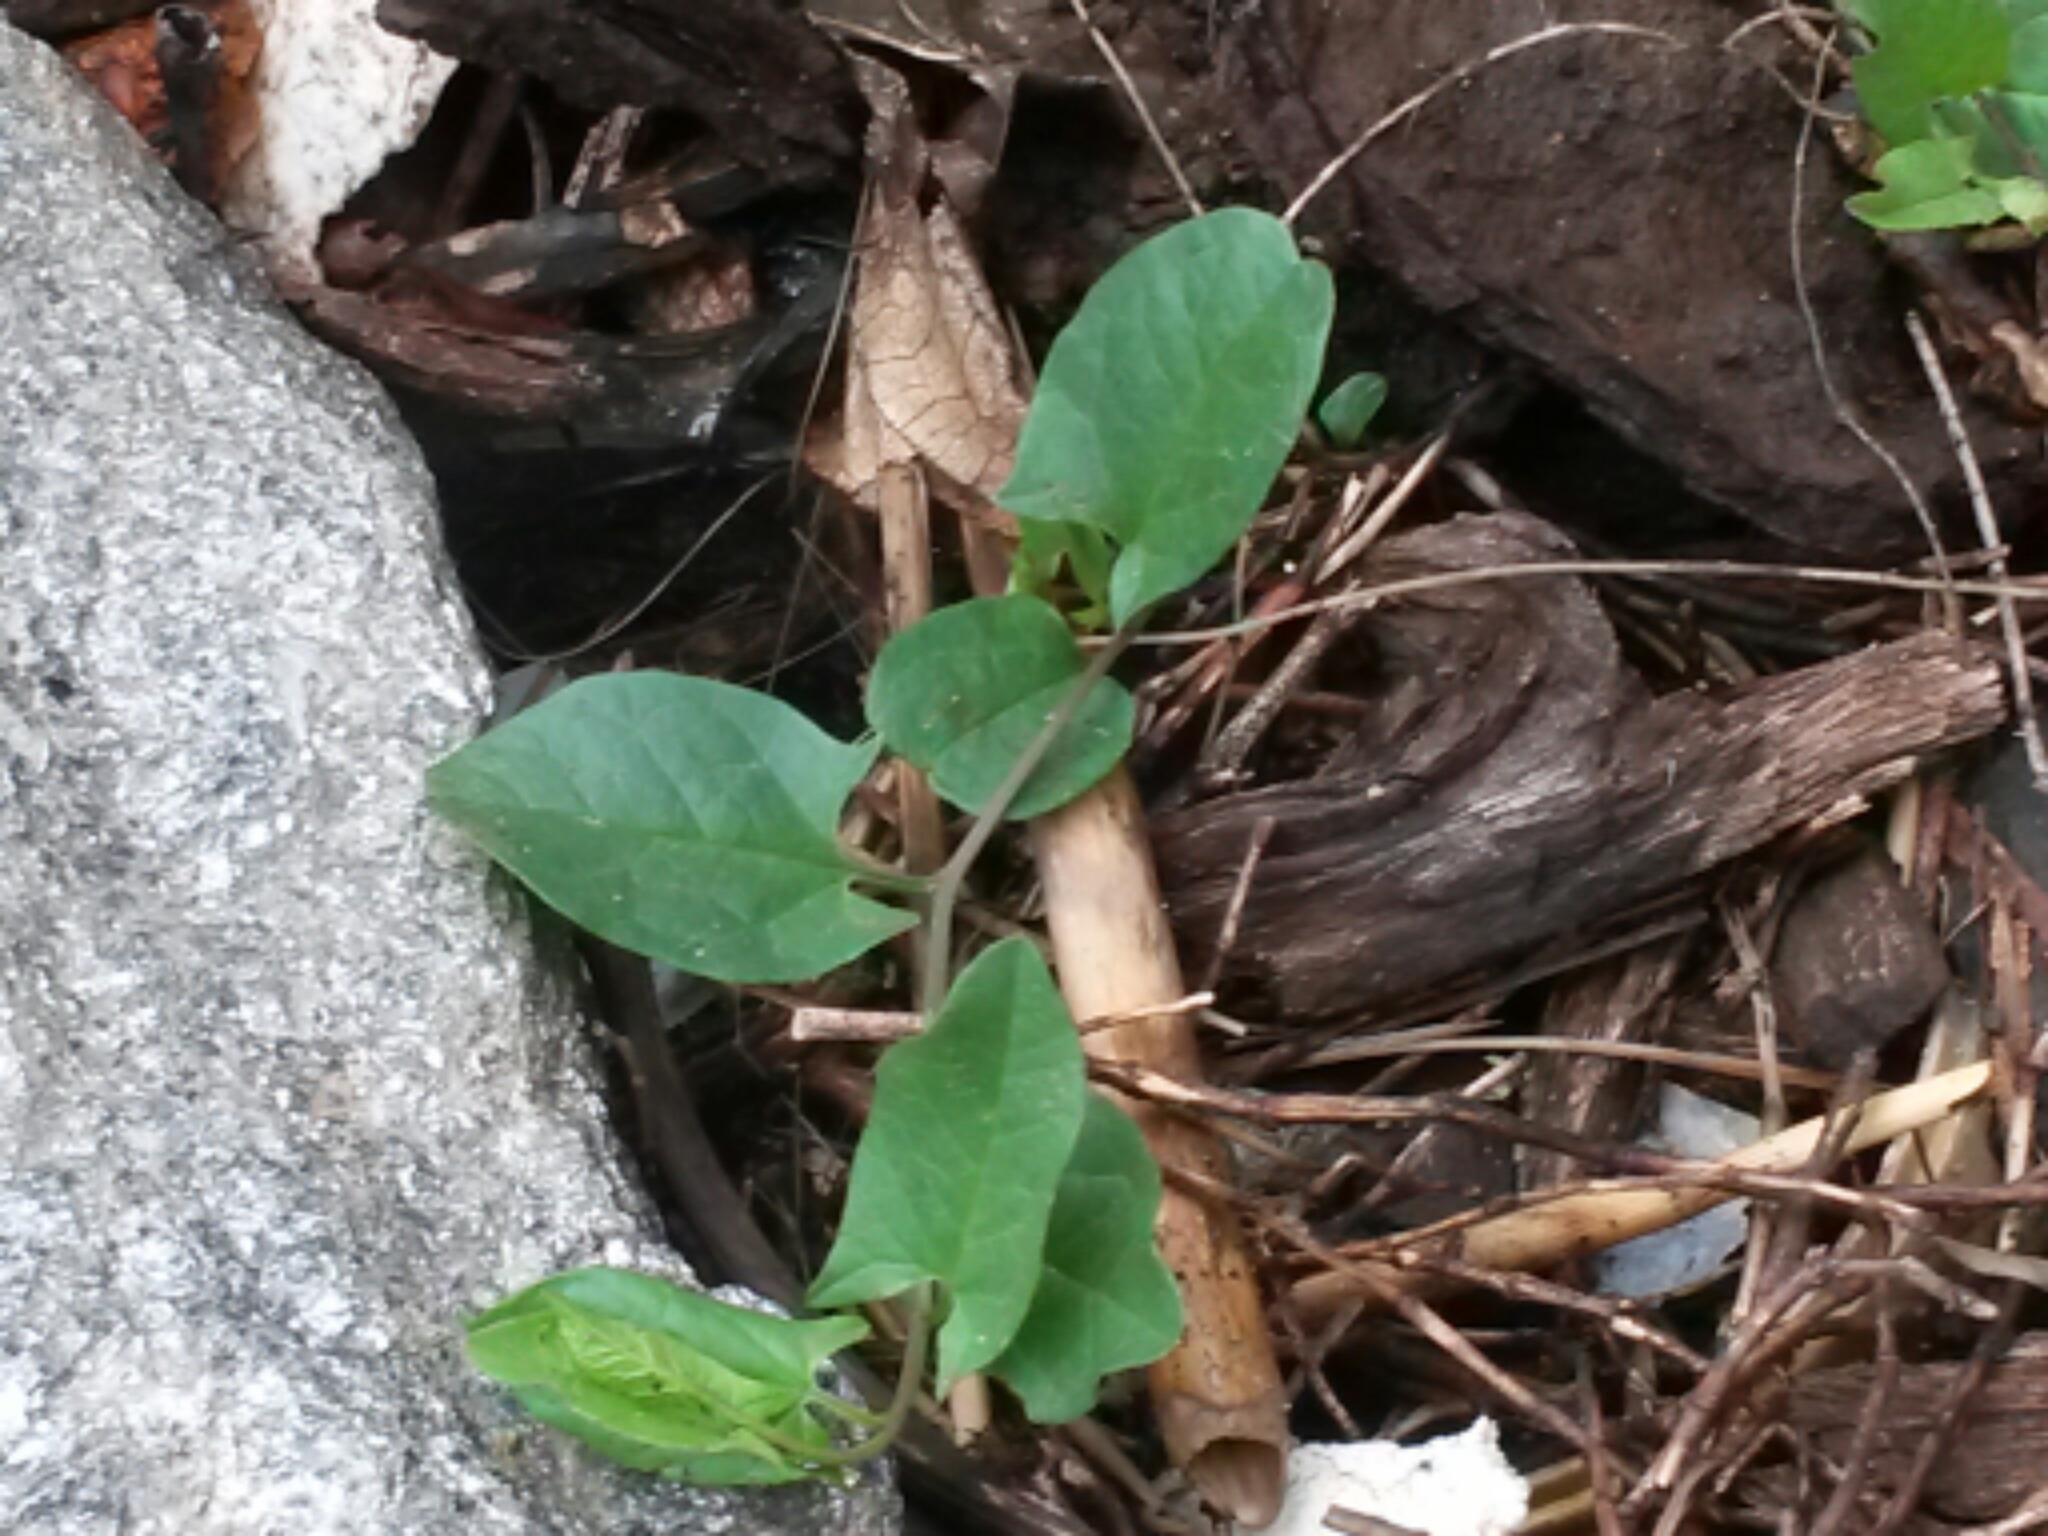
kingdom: Plantae
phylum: Tracheophyta
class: Magnoliopsida
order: Solanales
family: Convolvulaceae
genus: Convolvulus
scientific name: Convolvulus arvensis
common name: Field bindweed
